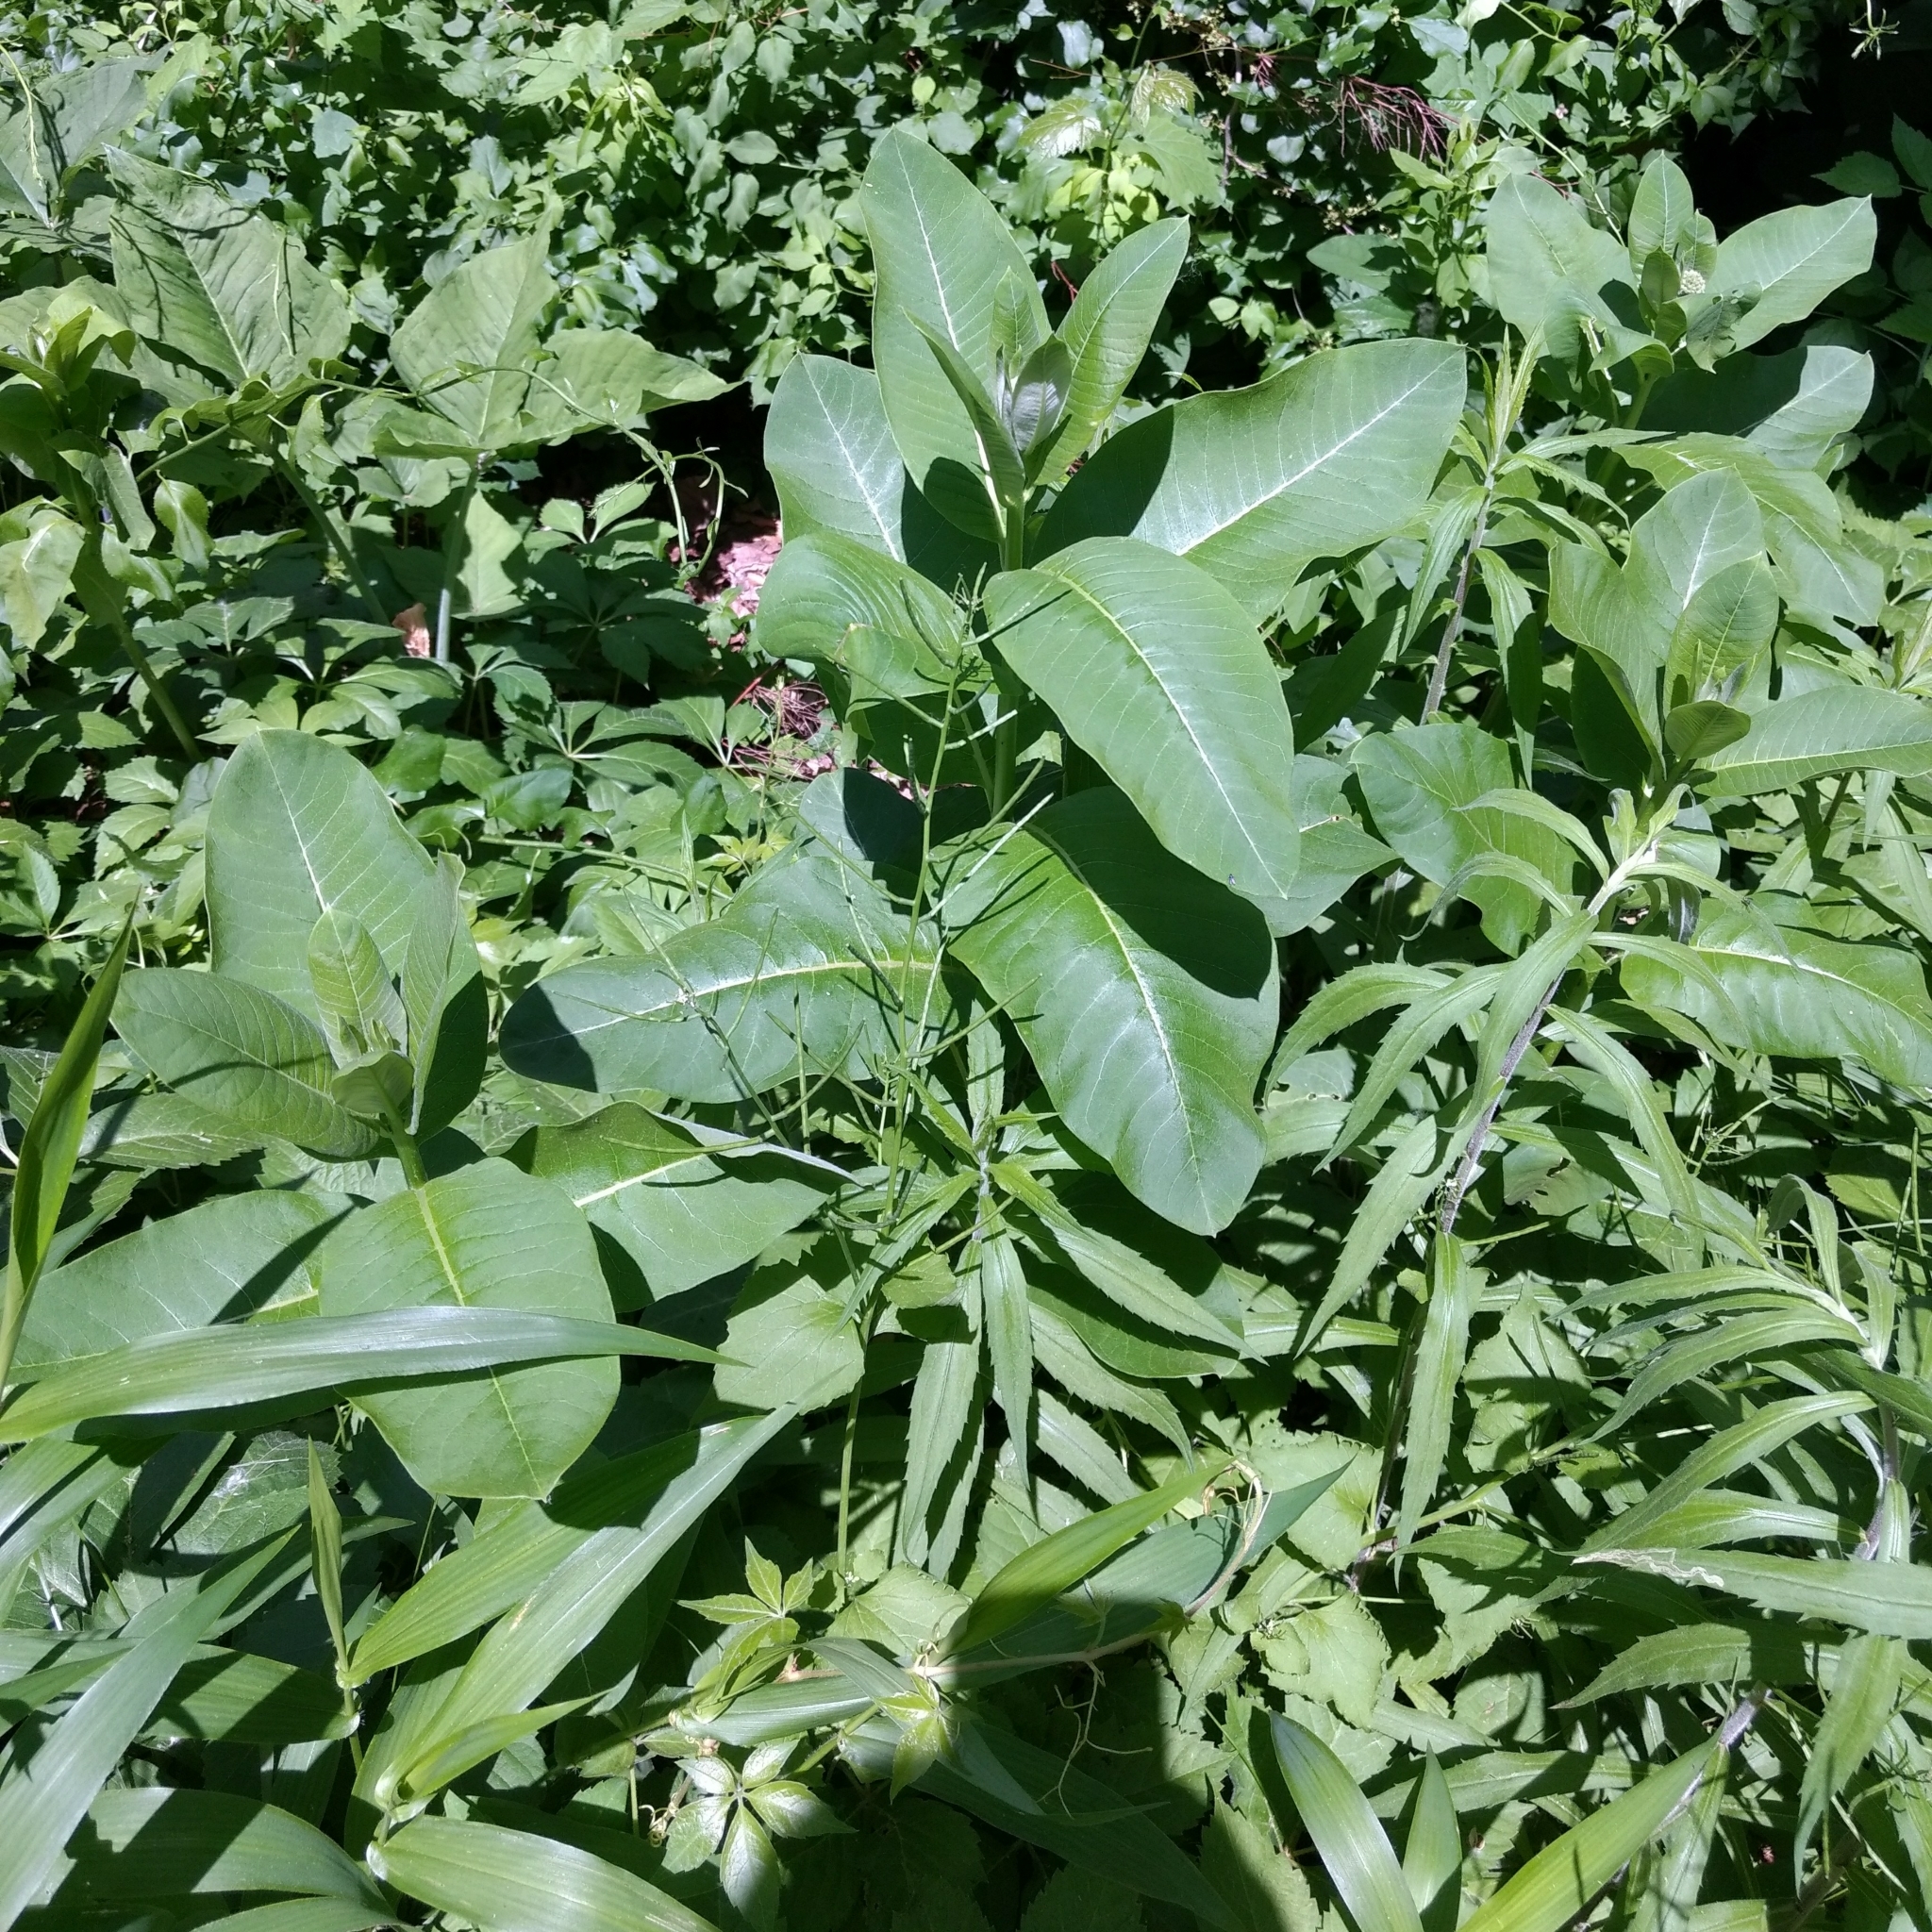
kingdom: Plantae
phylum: Tracheophyta
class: Magnoliopsida
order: Gentianales
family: Apocynaceae
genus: Asclepias
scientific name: Asclepias syriaca
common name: Common milkweed
